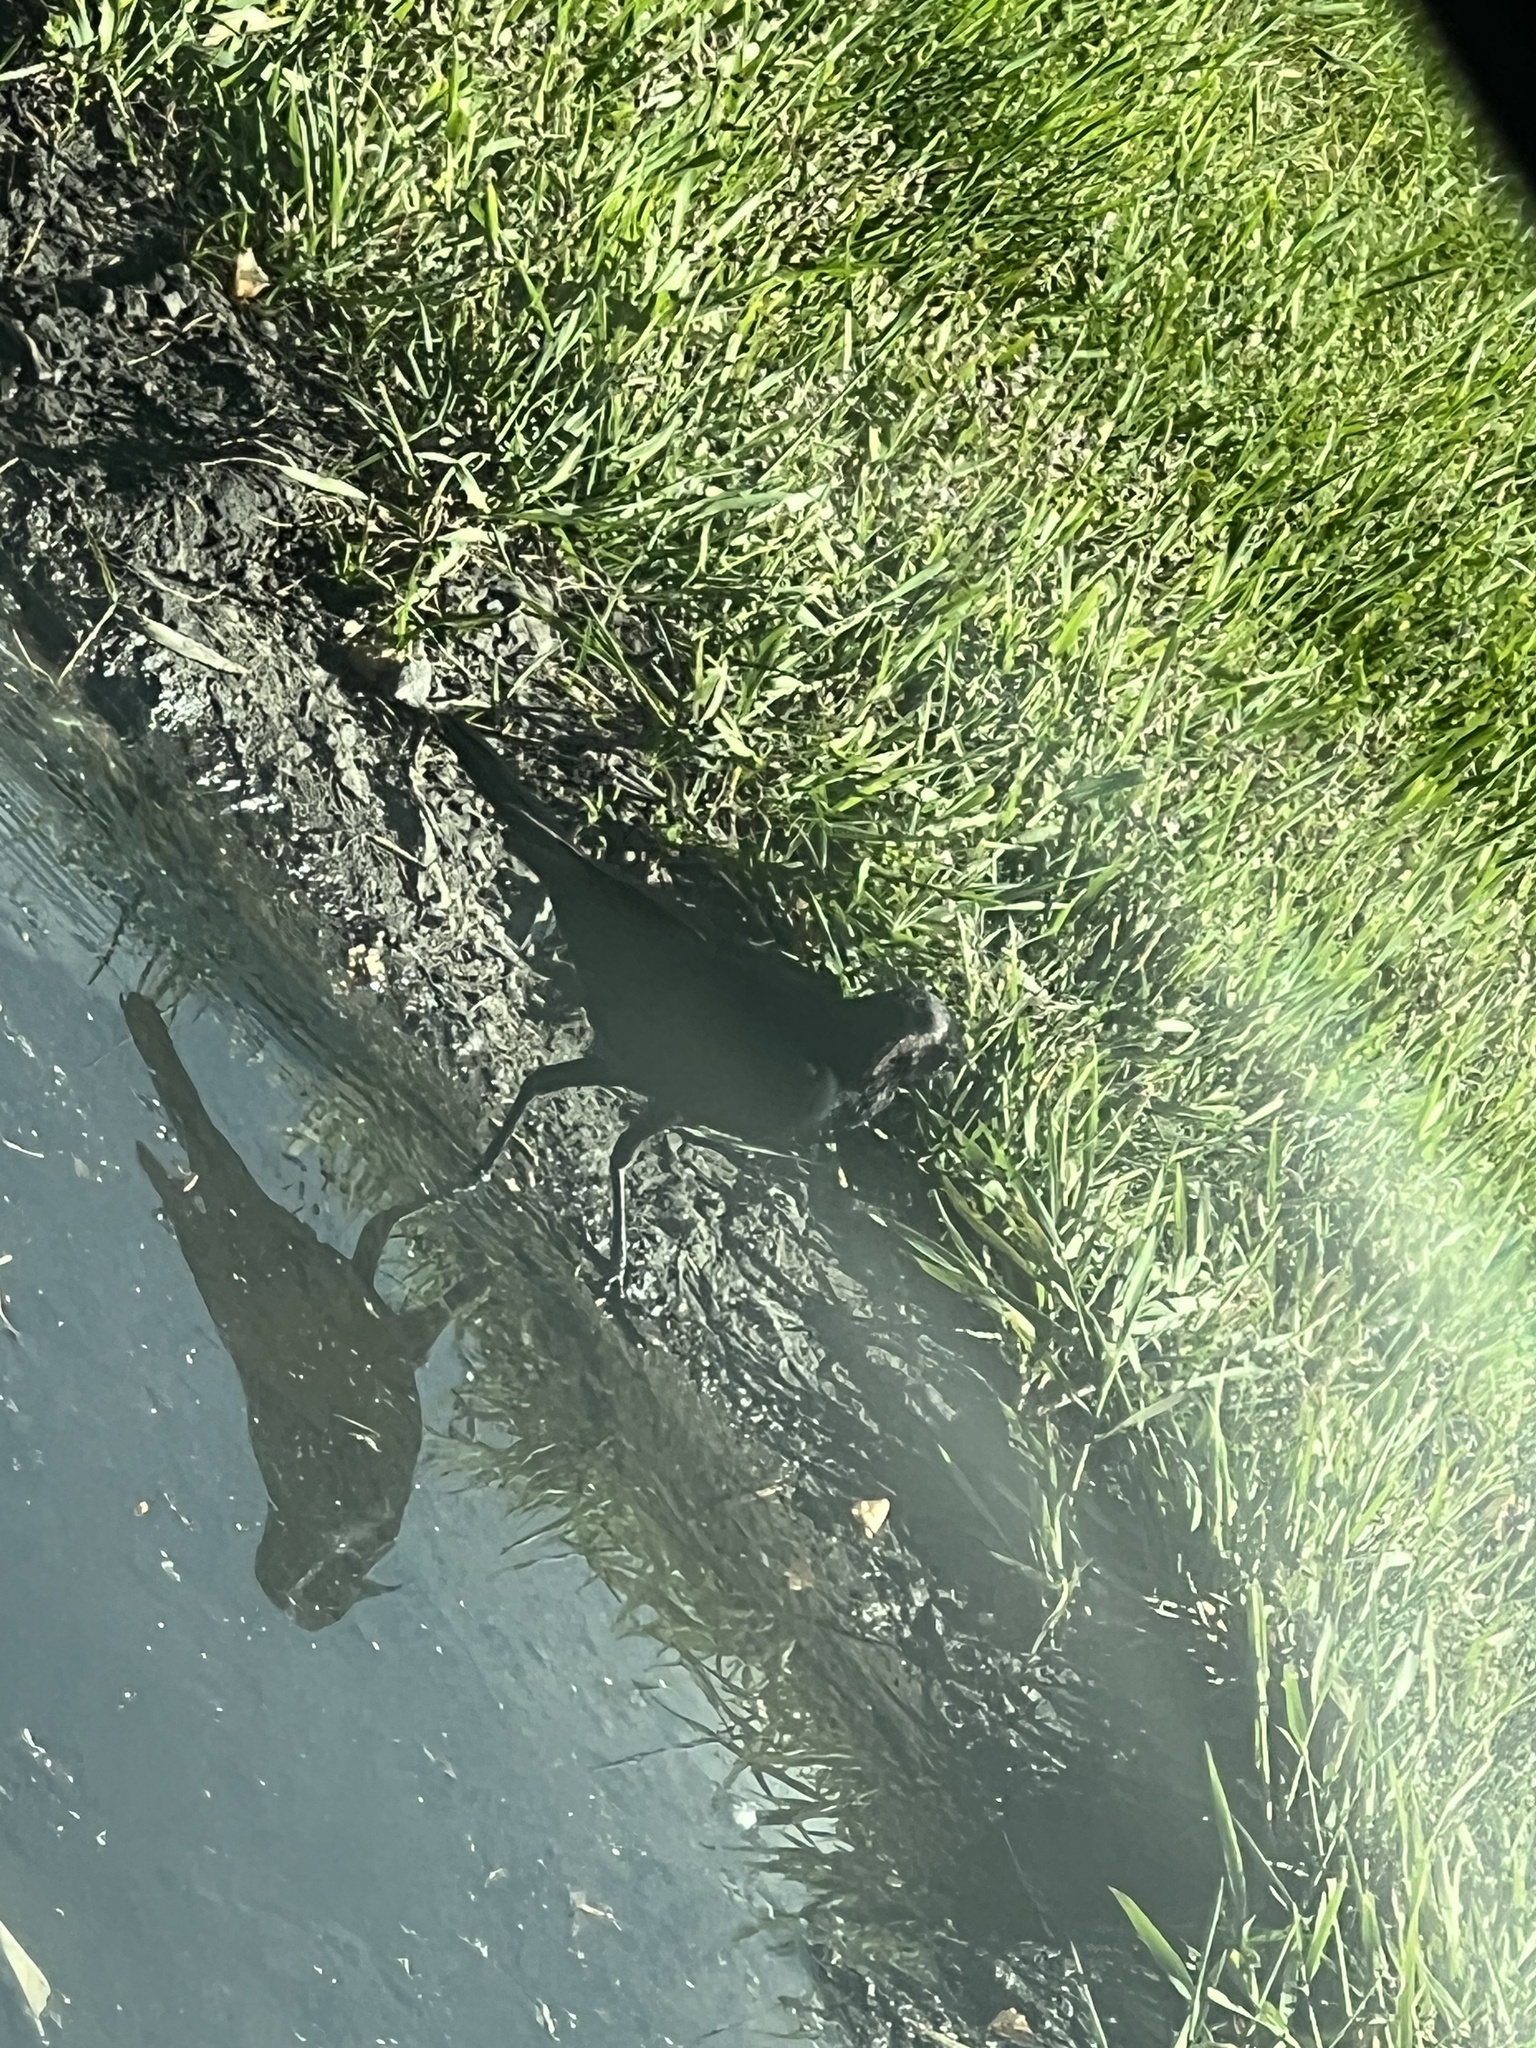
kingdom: Animalia
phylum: Chordata
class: Aves
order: Passeriformes
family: Icteridae
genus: Euphagus
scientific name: Euphagus cyanocephalus
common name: Brewer's blackbird
